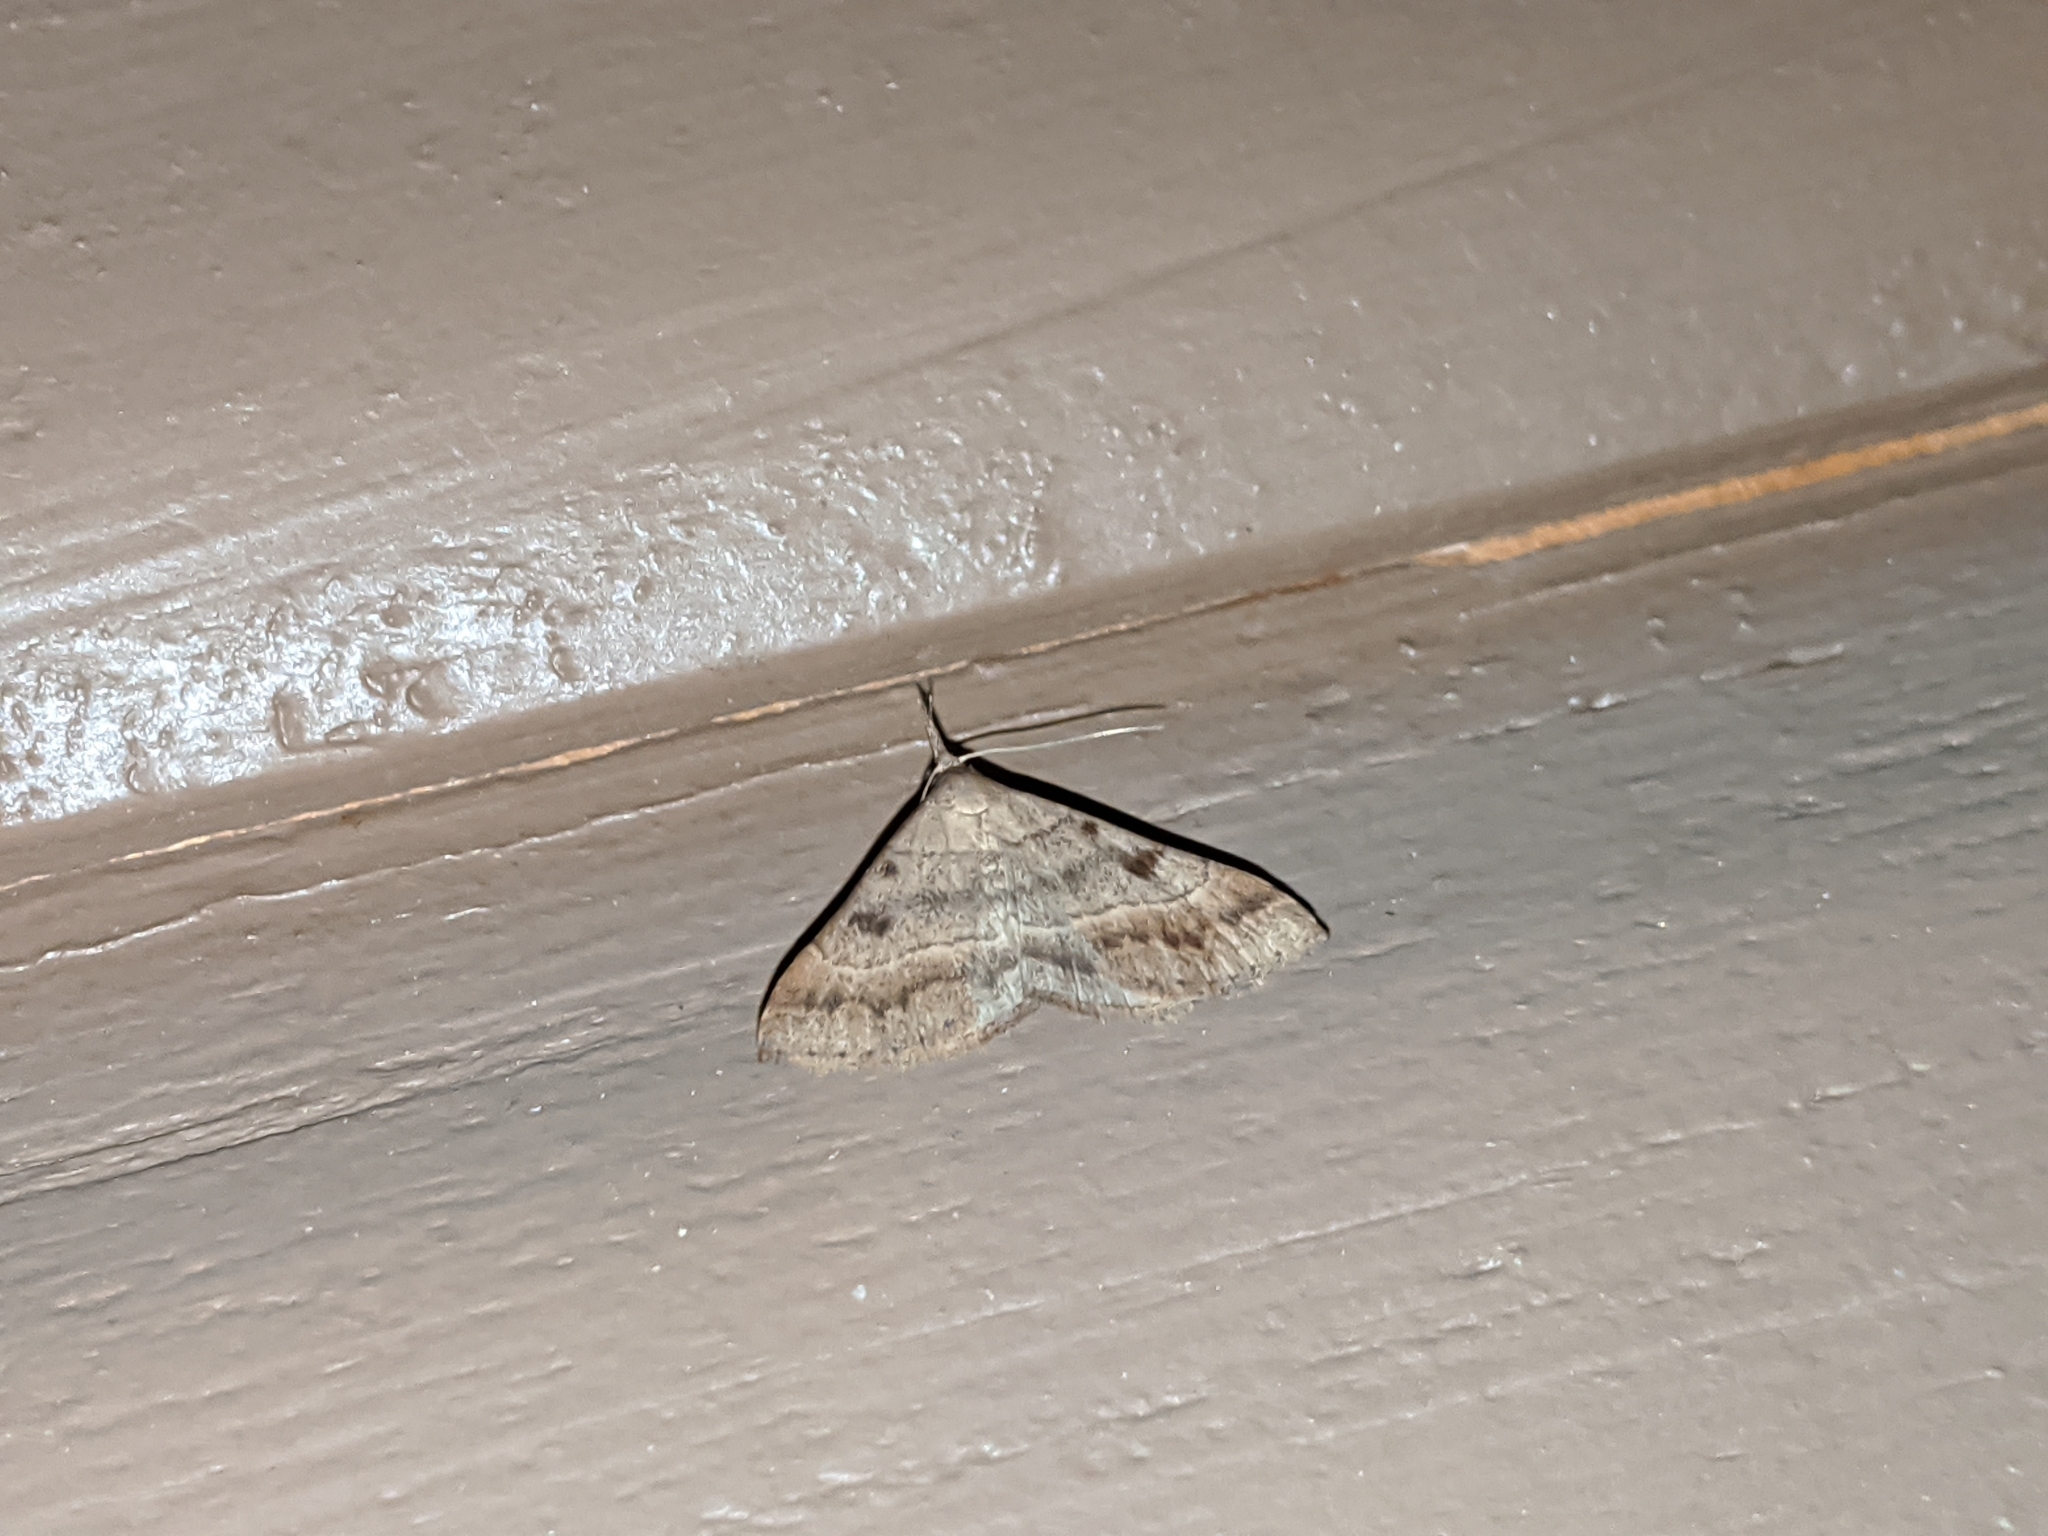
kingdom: Animalia
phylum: Arthropoda
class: Insecta
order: Lepidoptera
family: Erebidae
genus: Renia
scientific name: Renia flavipunctalis
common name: Yellow-spotted renia moth
